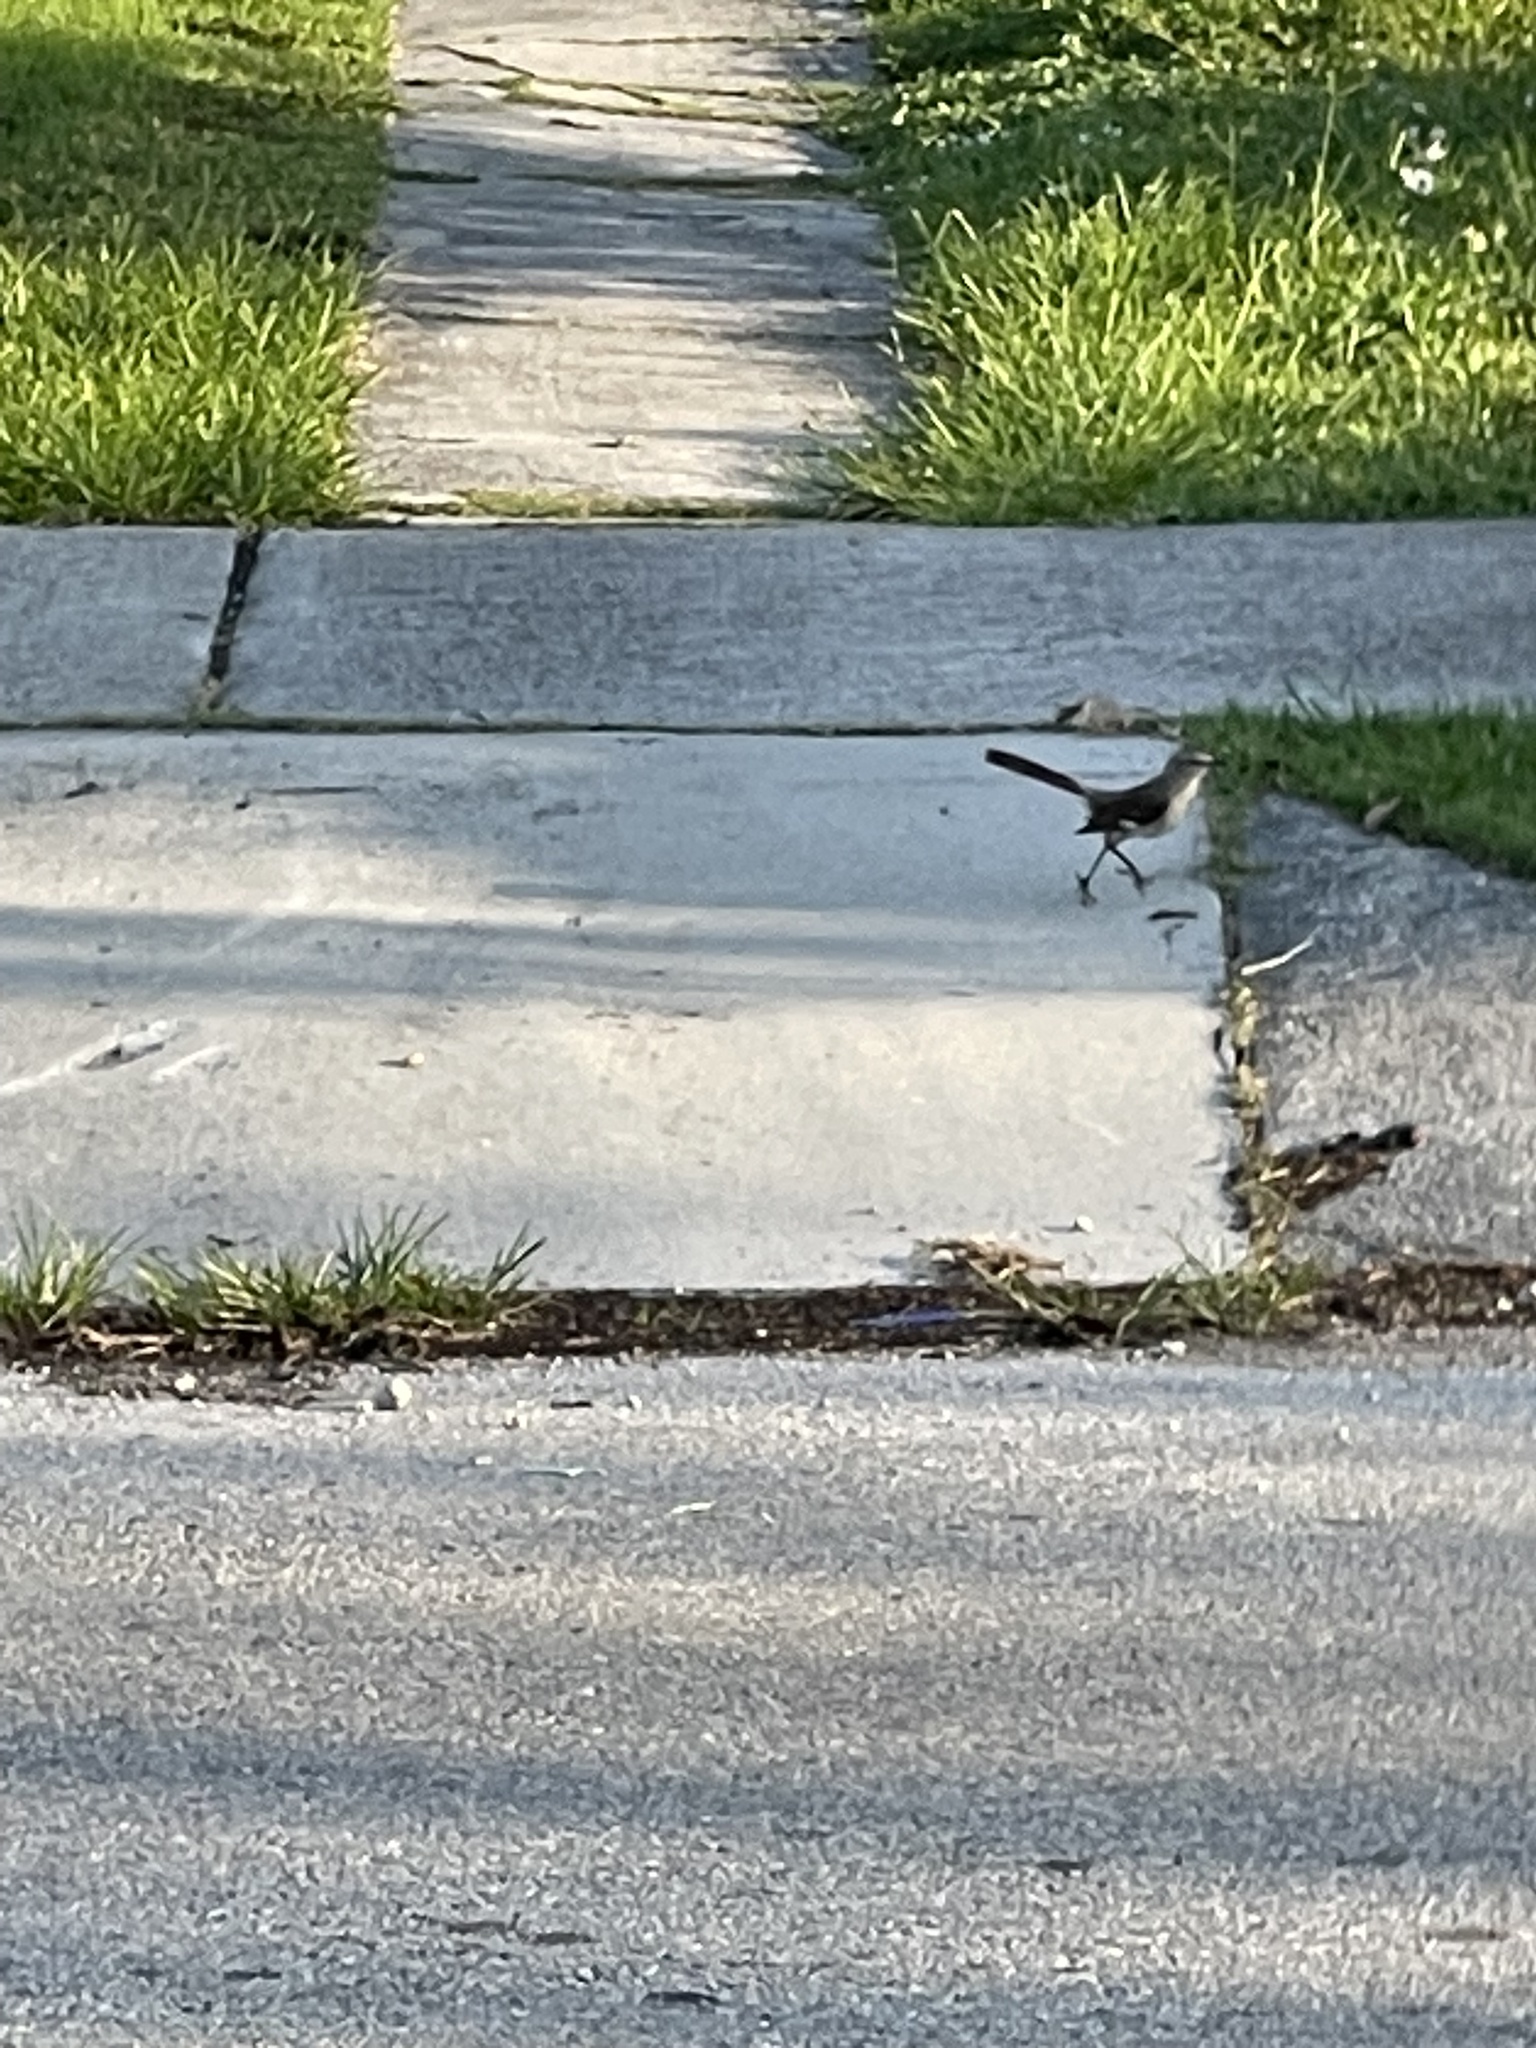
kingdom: Animalia
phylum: Chordata
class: Aves
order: Passeriformes
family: Mimidae
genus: Mimus
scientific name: Mimus polyglottos
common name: Northern mockingbird
